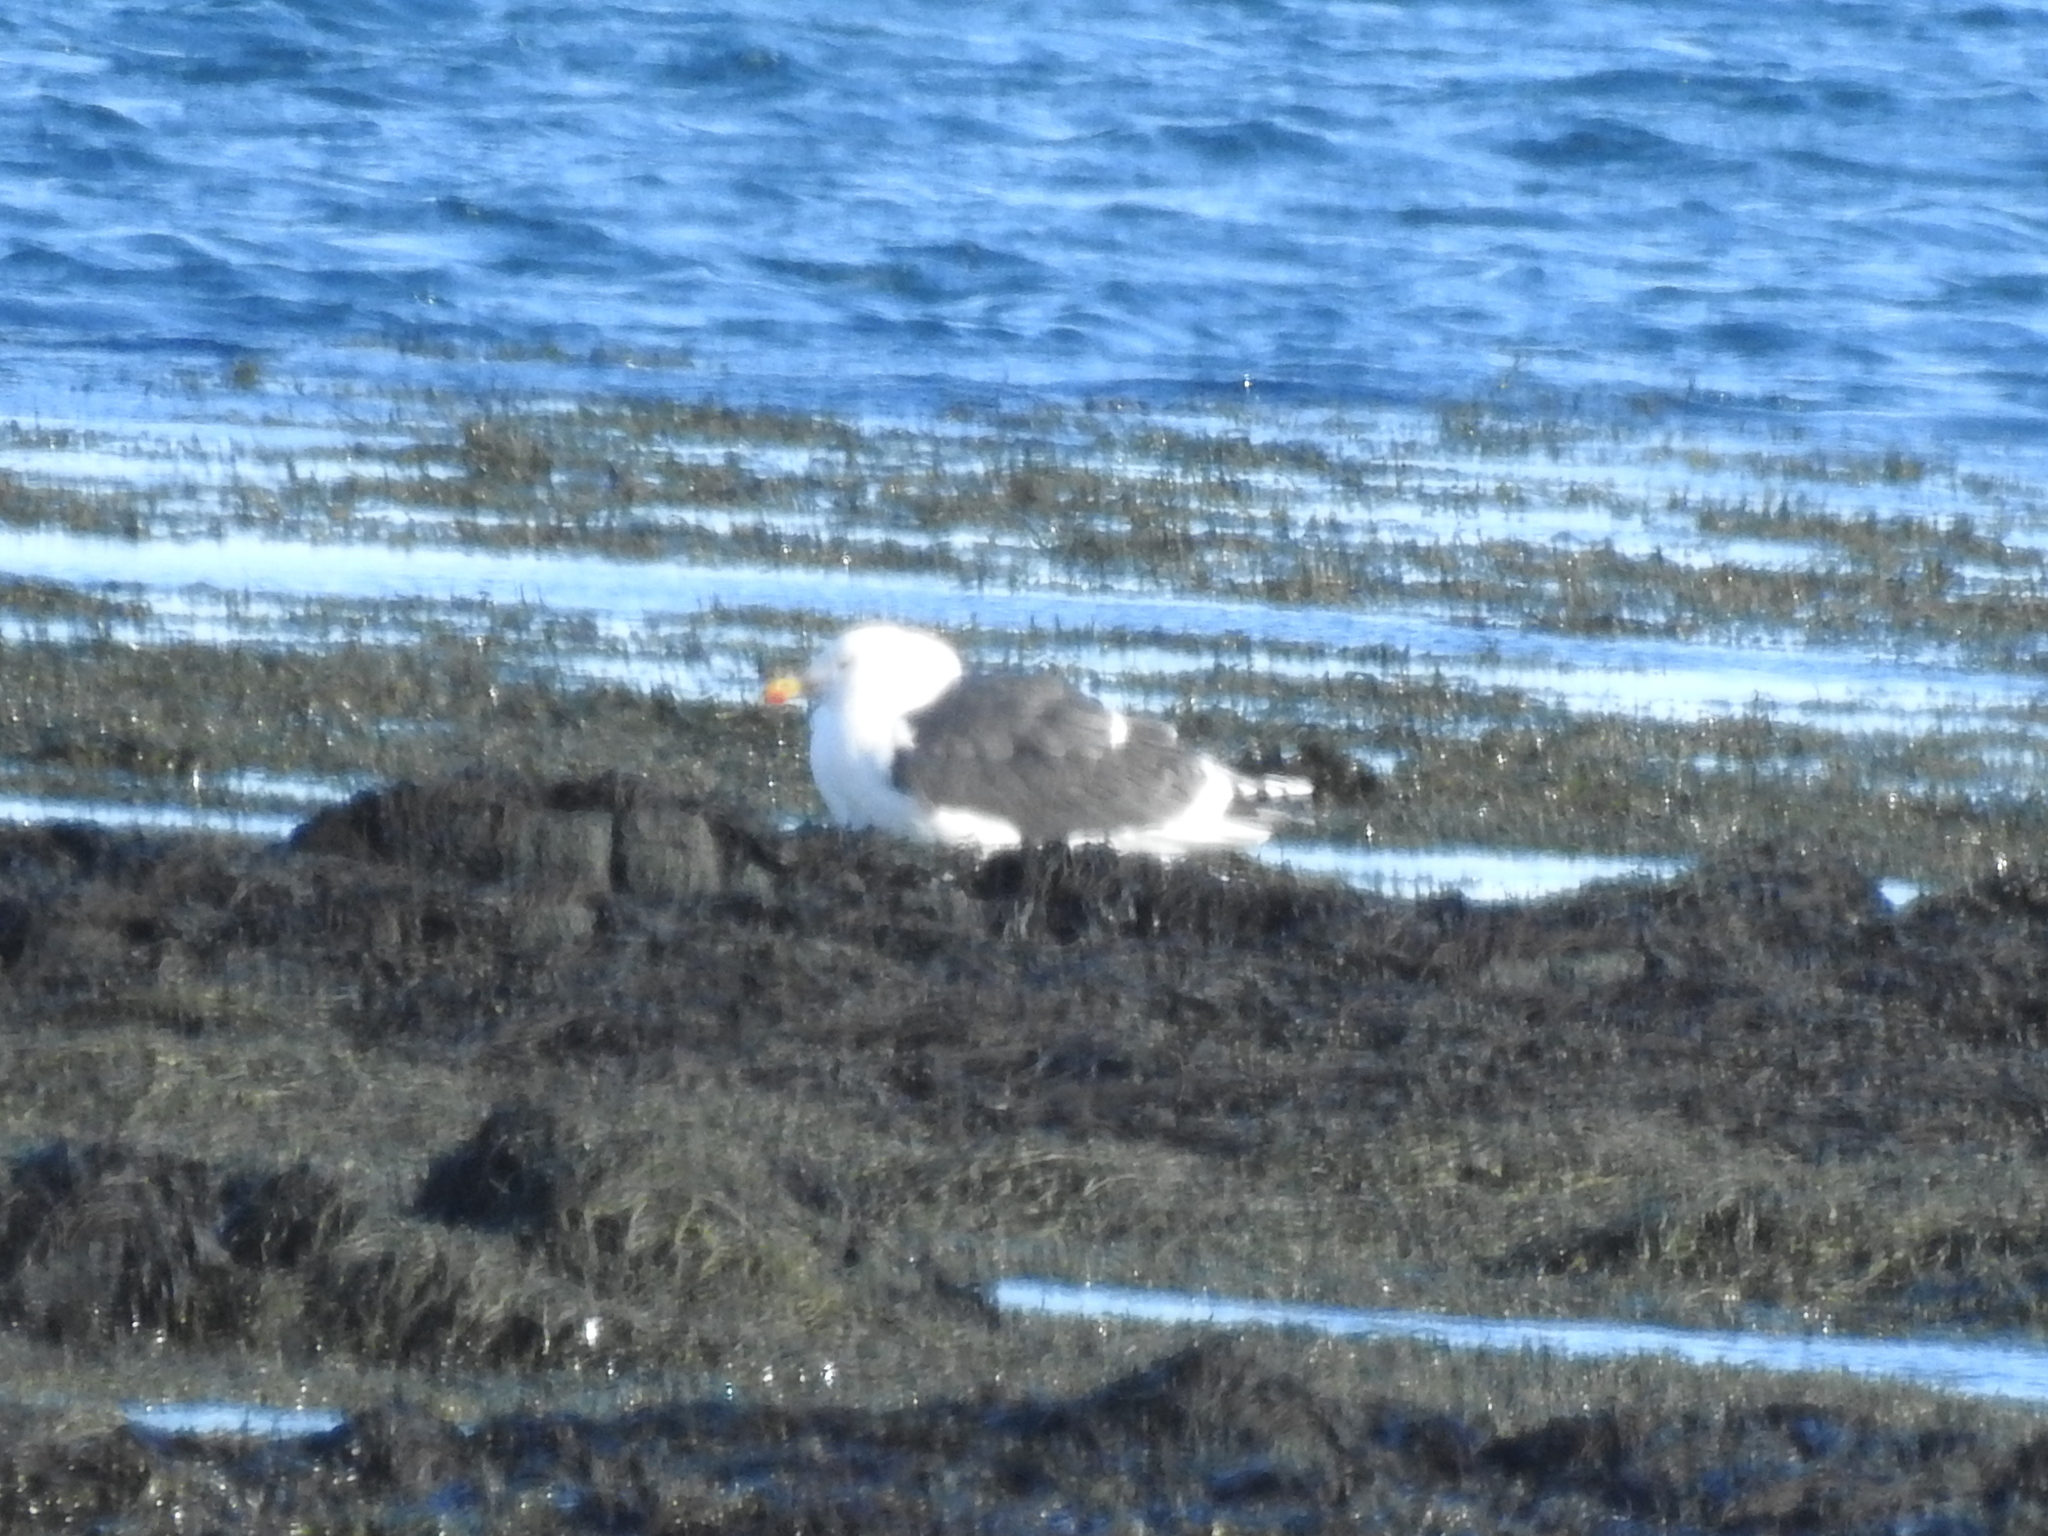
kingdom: Animalia
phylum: Chordata
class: Aves
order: Charadriiformes
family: Laridae
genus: Larus
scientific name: Larus marinus
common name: Great black-backed gull
